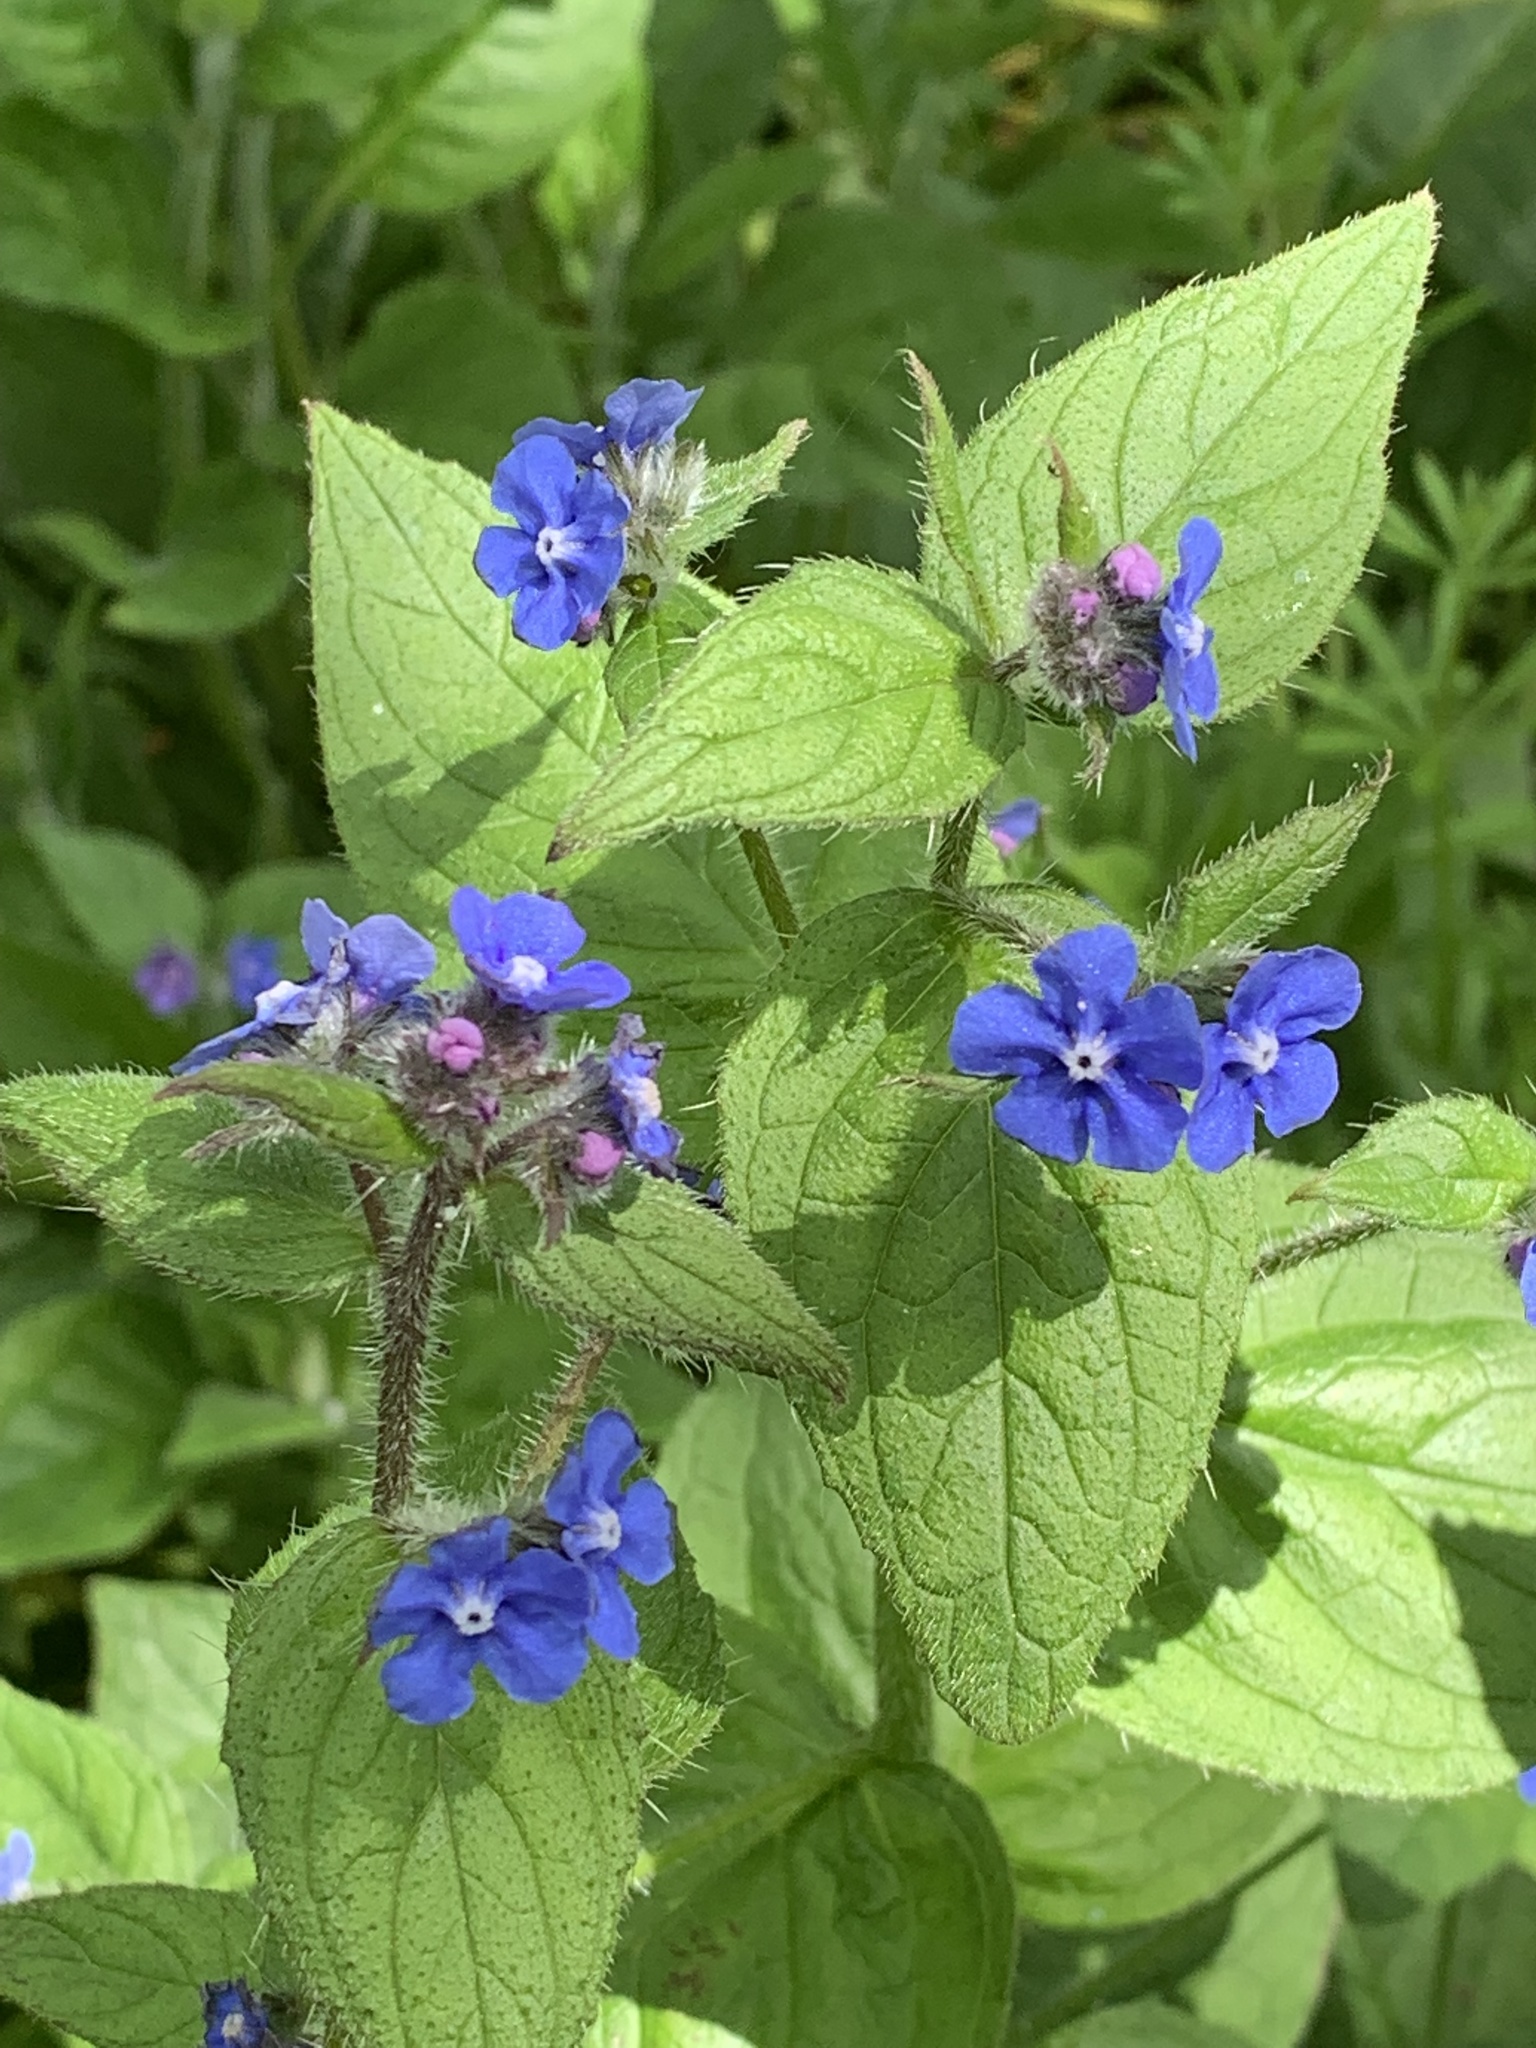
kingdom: Plantae
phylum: Tracheophyta
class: Magnoliopsida
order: Boraginales
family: Boraginaceae
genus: Pentaglottis
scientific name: Pentaglottis sempervirens
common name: Green alkanet
